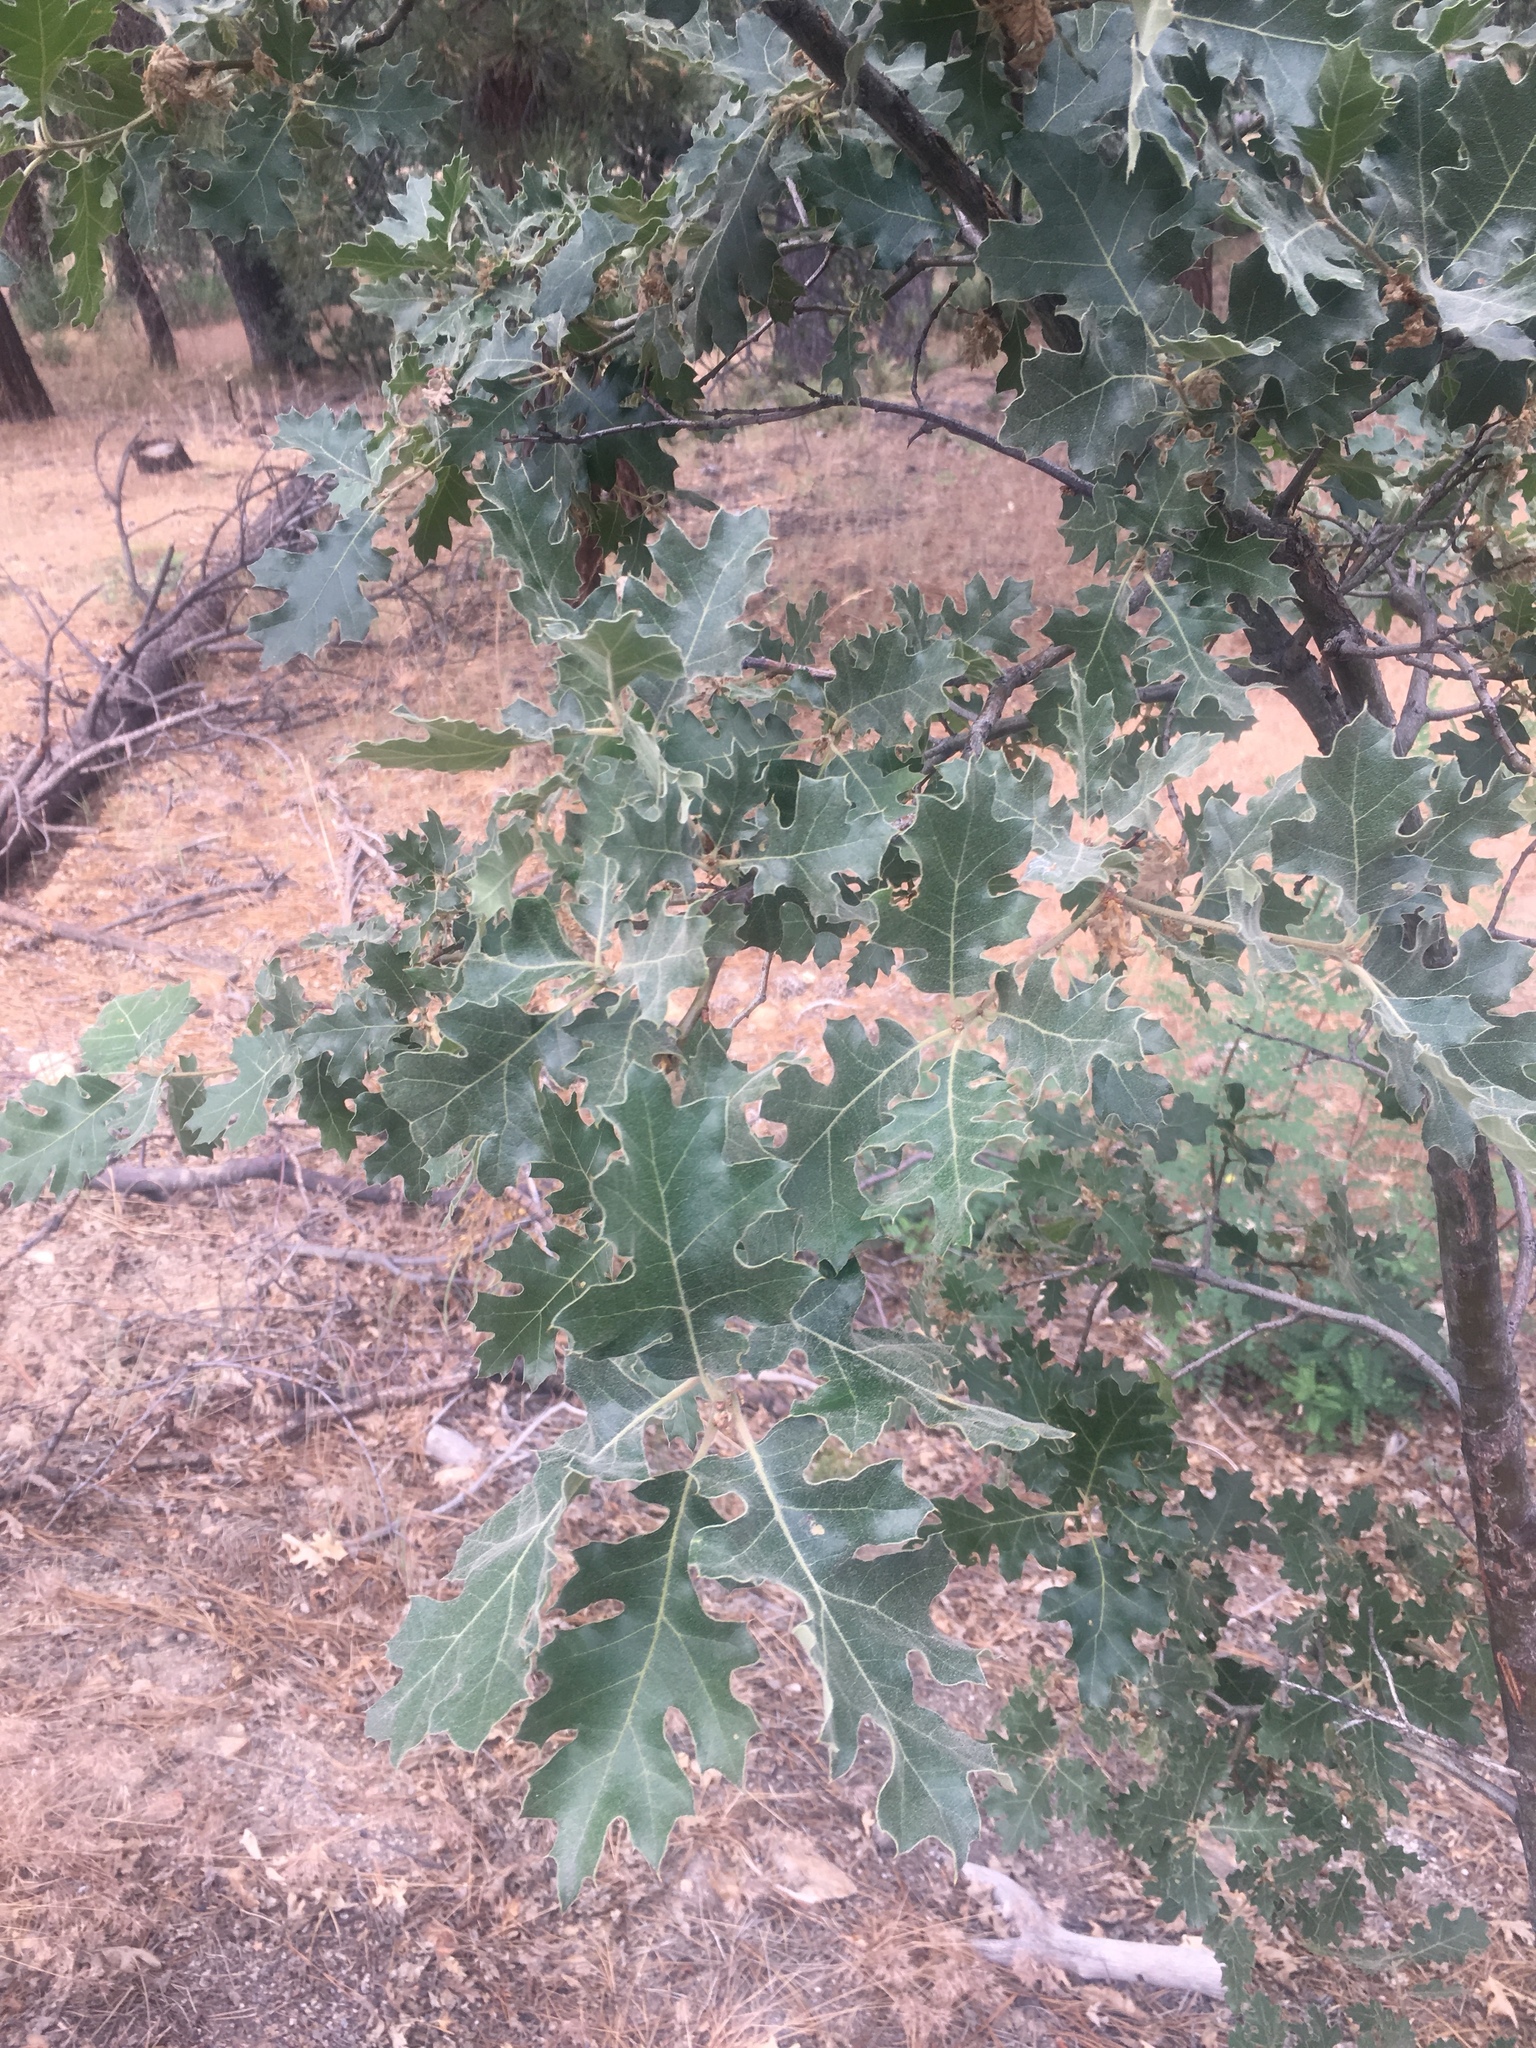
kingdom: Plantae
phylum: Tracheophyta
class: Magnoliopsida
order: Fagales
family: Fagaceae
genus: Quercus
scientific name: Quercus kelloggii
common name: California black oak
